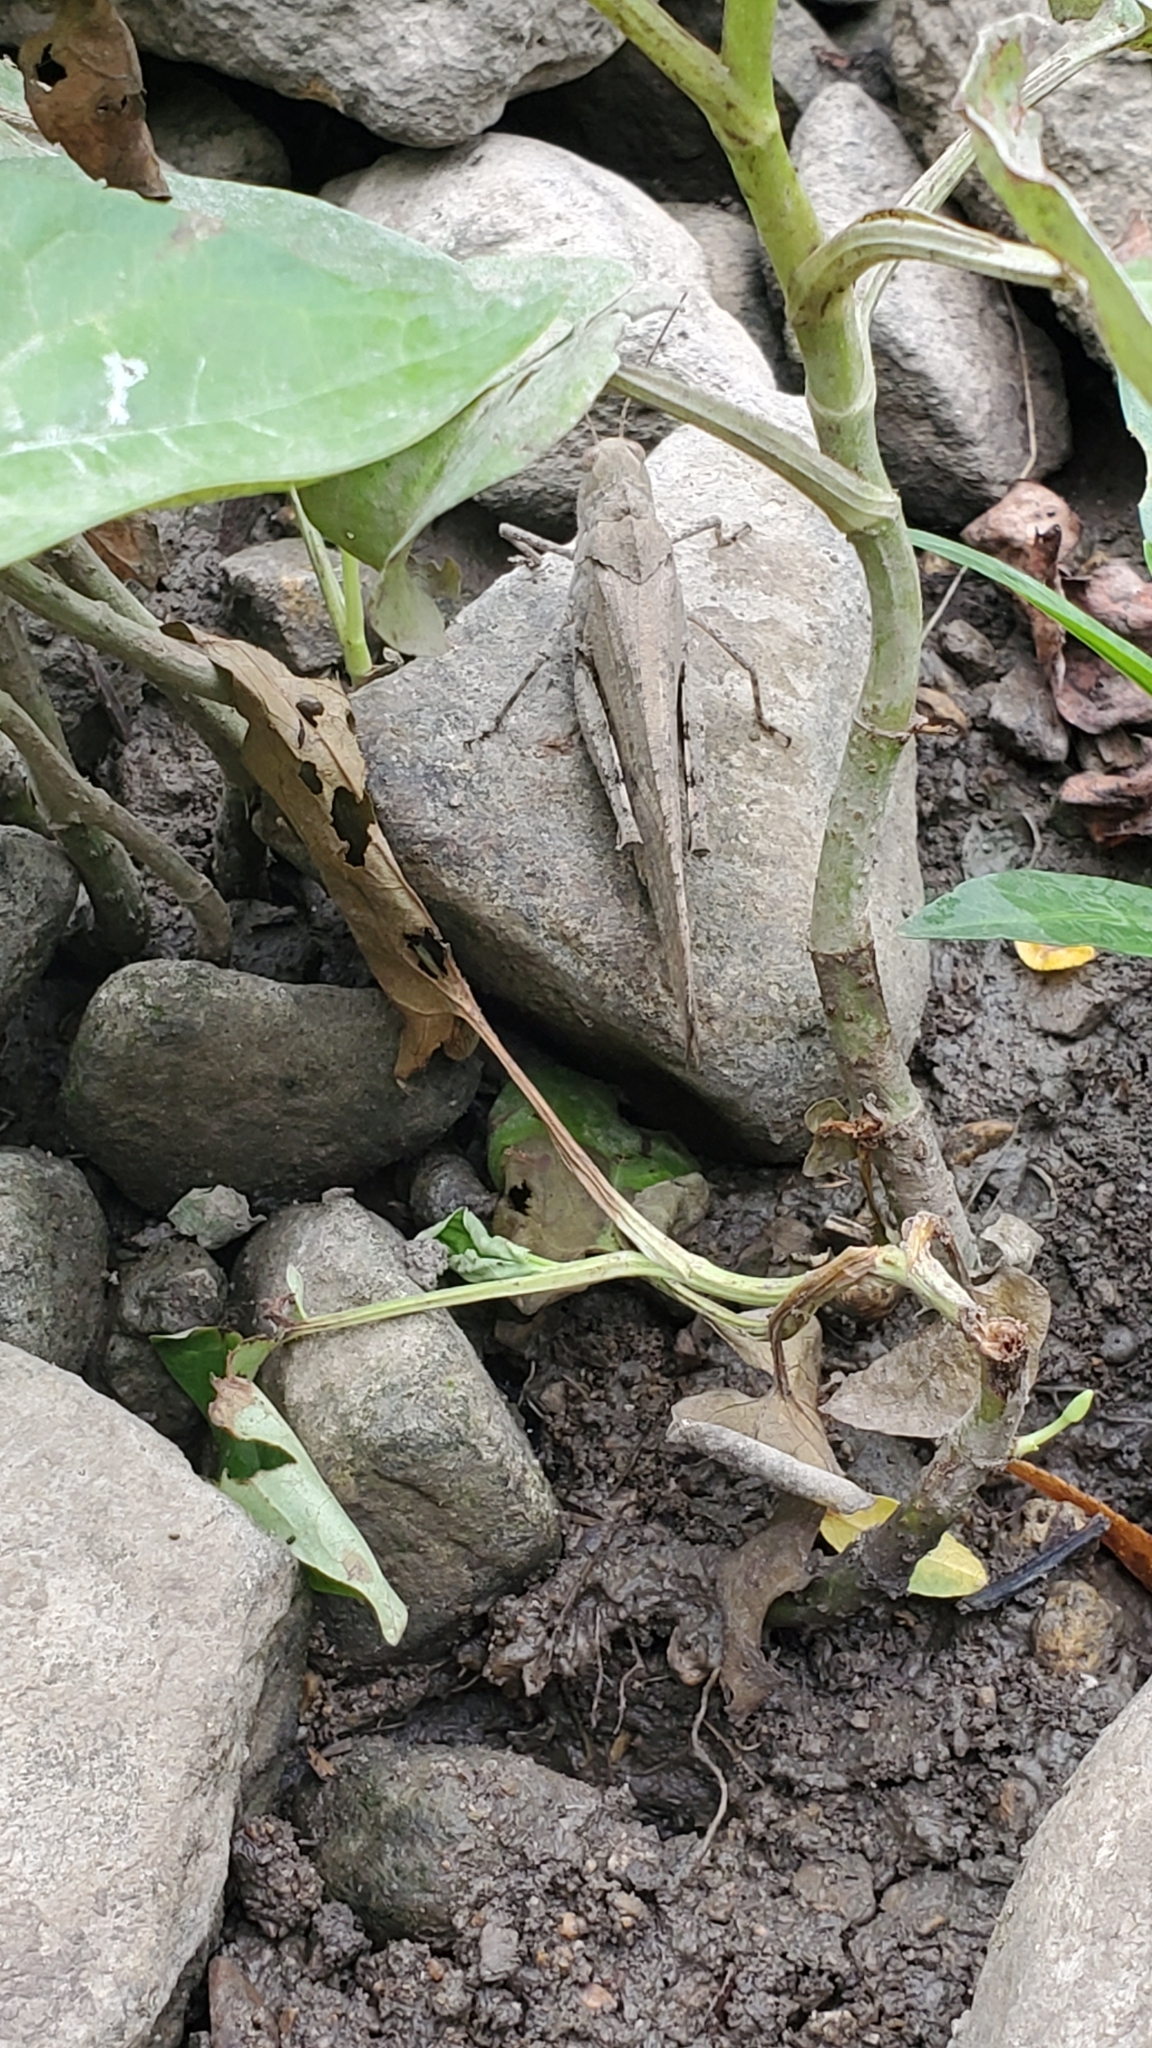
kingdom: Animalia
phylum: Arthropoda
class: Insecta
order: Orthoptera
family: Acrididae
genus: Dissosteira
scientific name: Dissosteira carolina
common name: Carolina grasshopper
